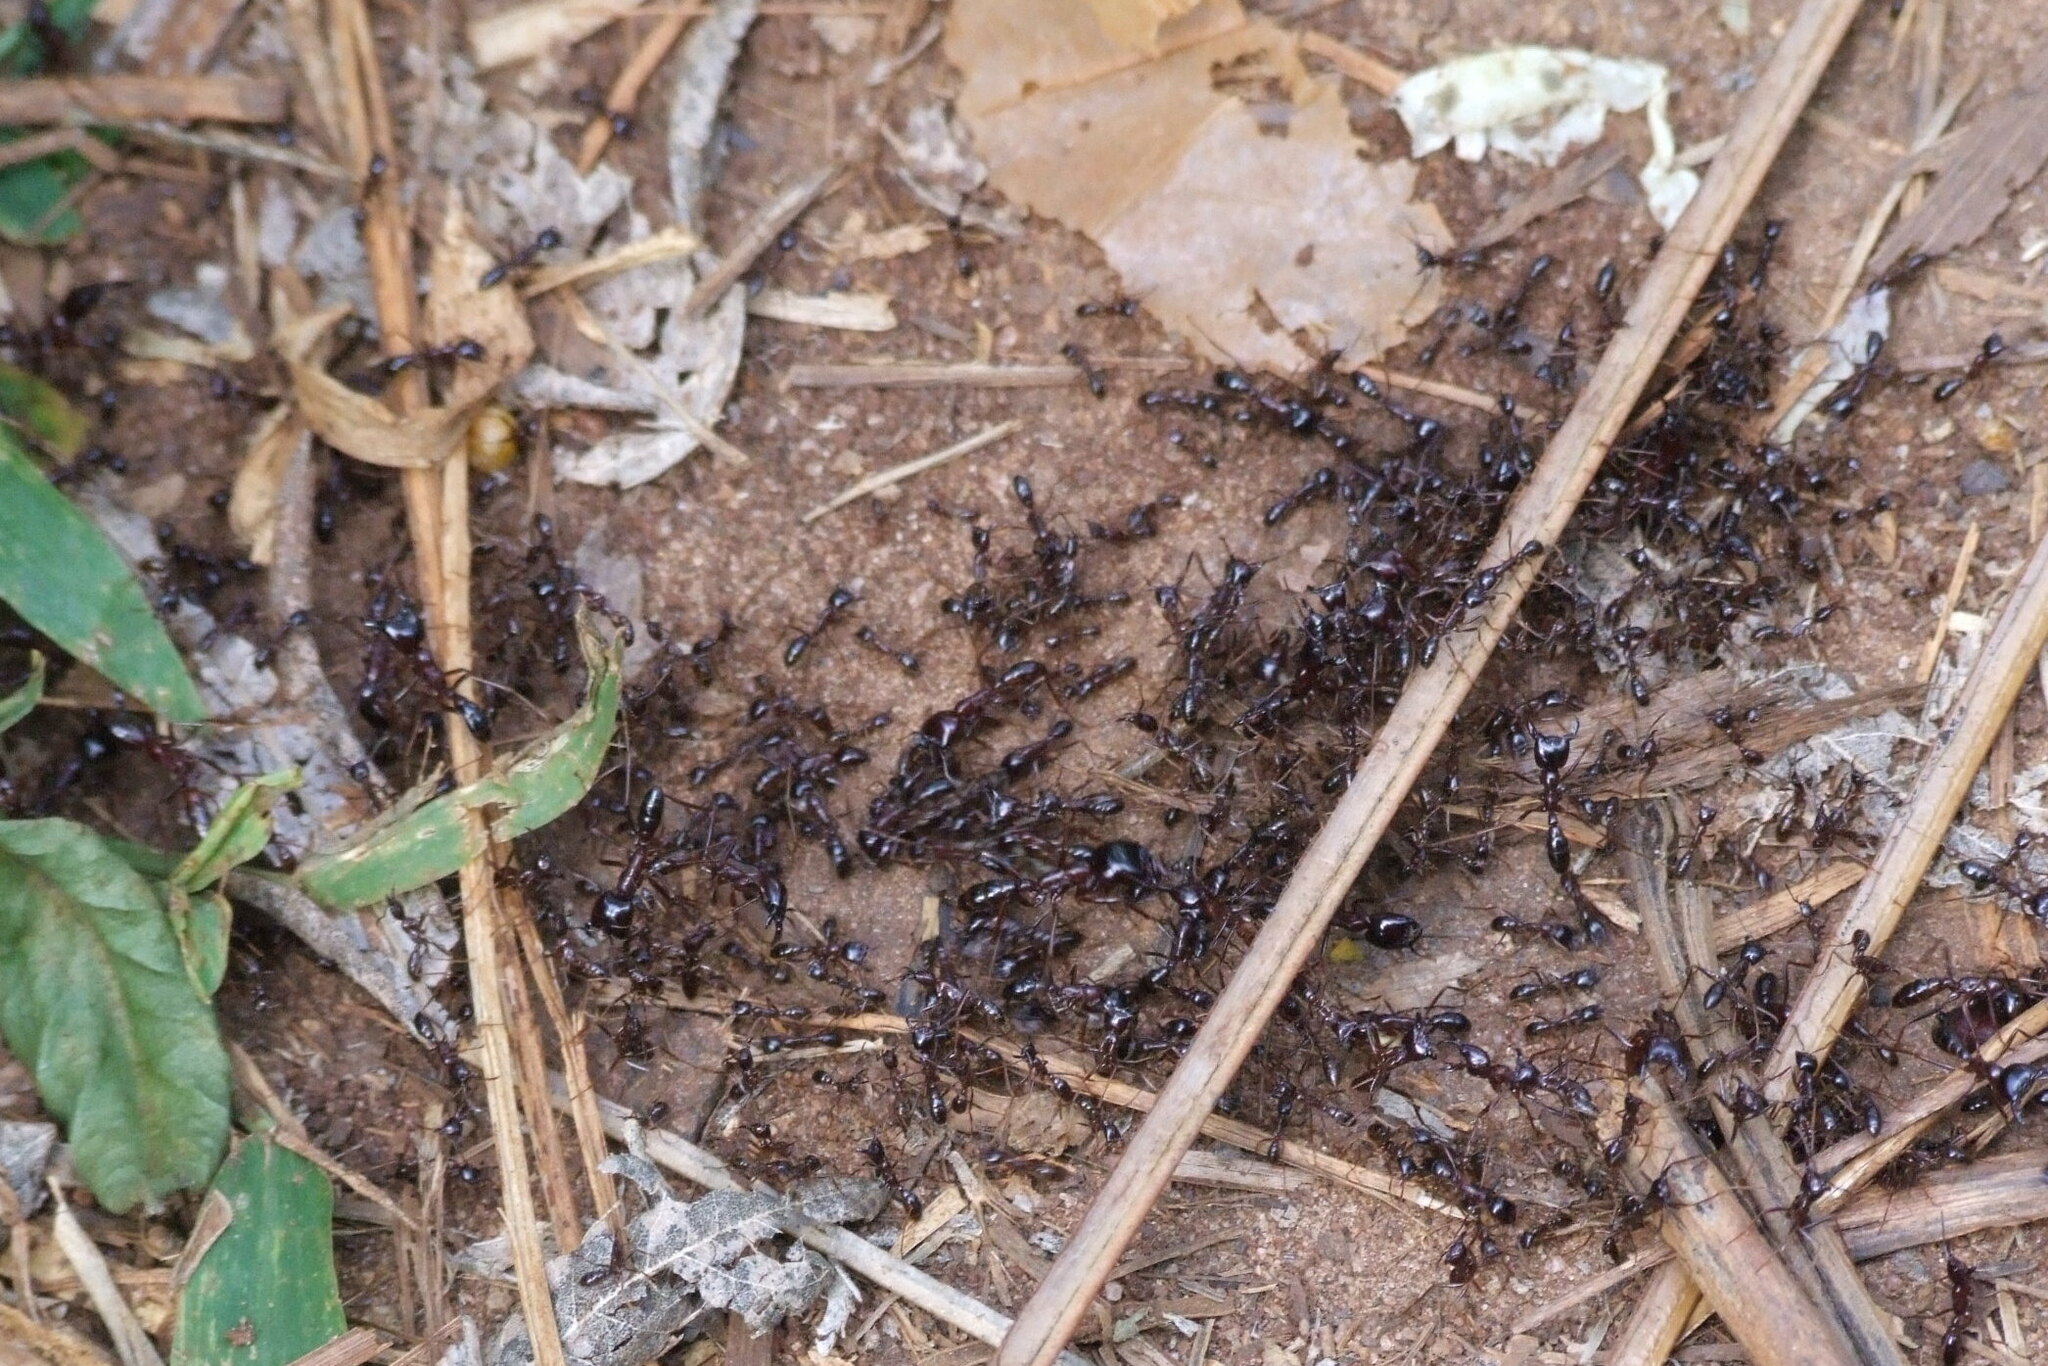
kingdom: Animalia
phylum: Arthropoda
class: Insecta
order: Hymenoptera
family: Formicidae
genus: Dorylus
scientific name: Dorylus
